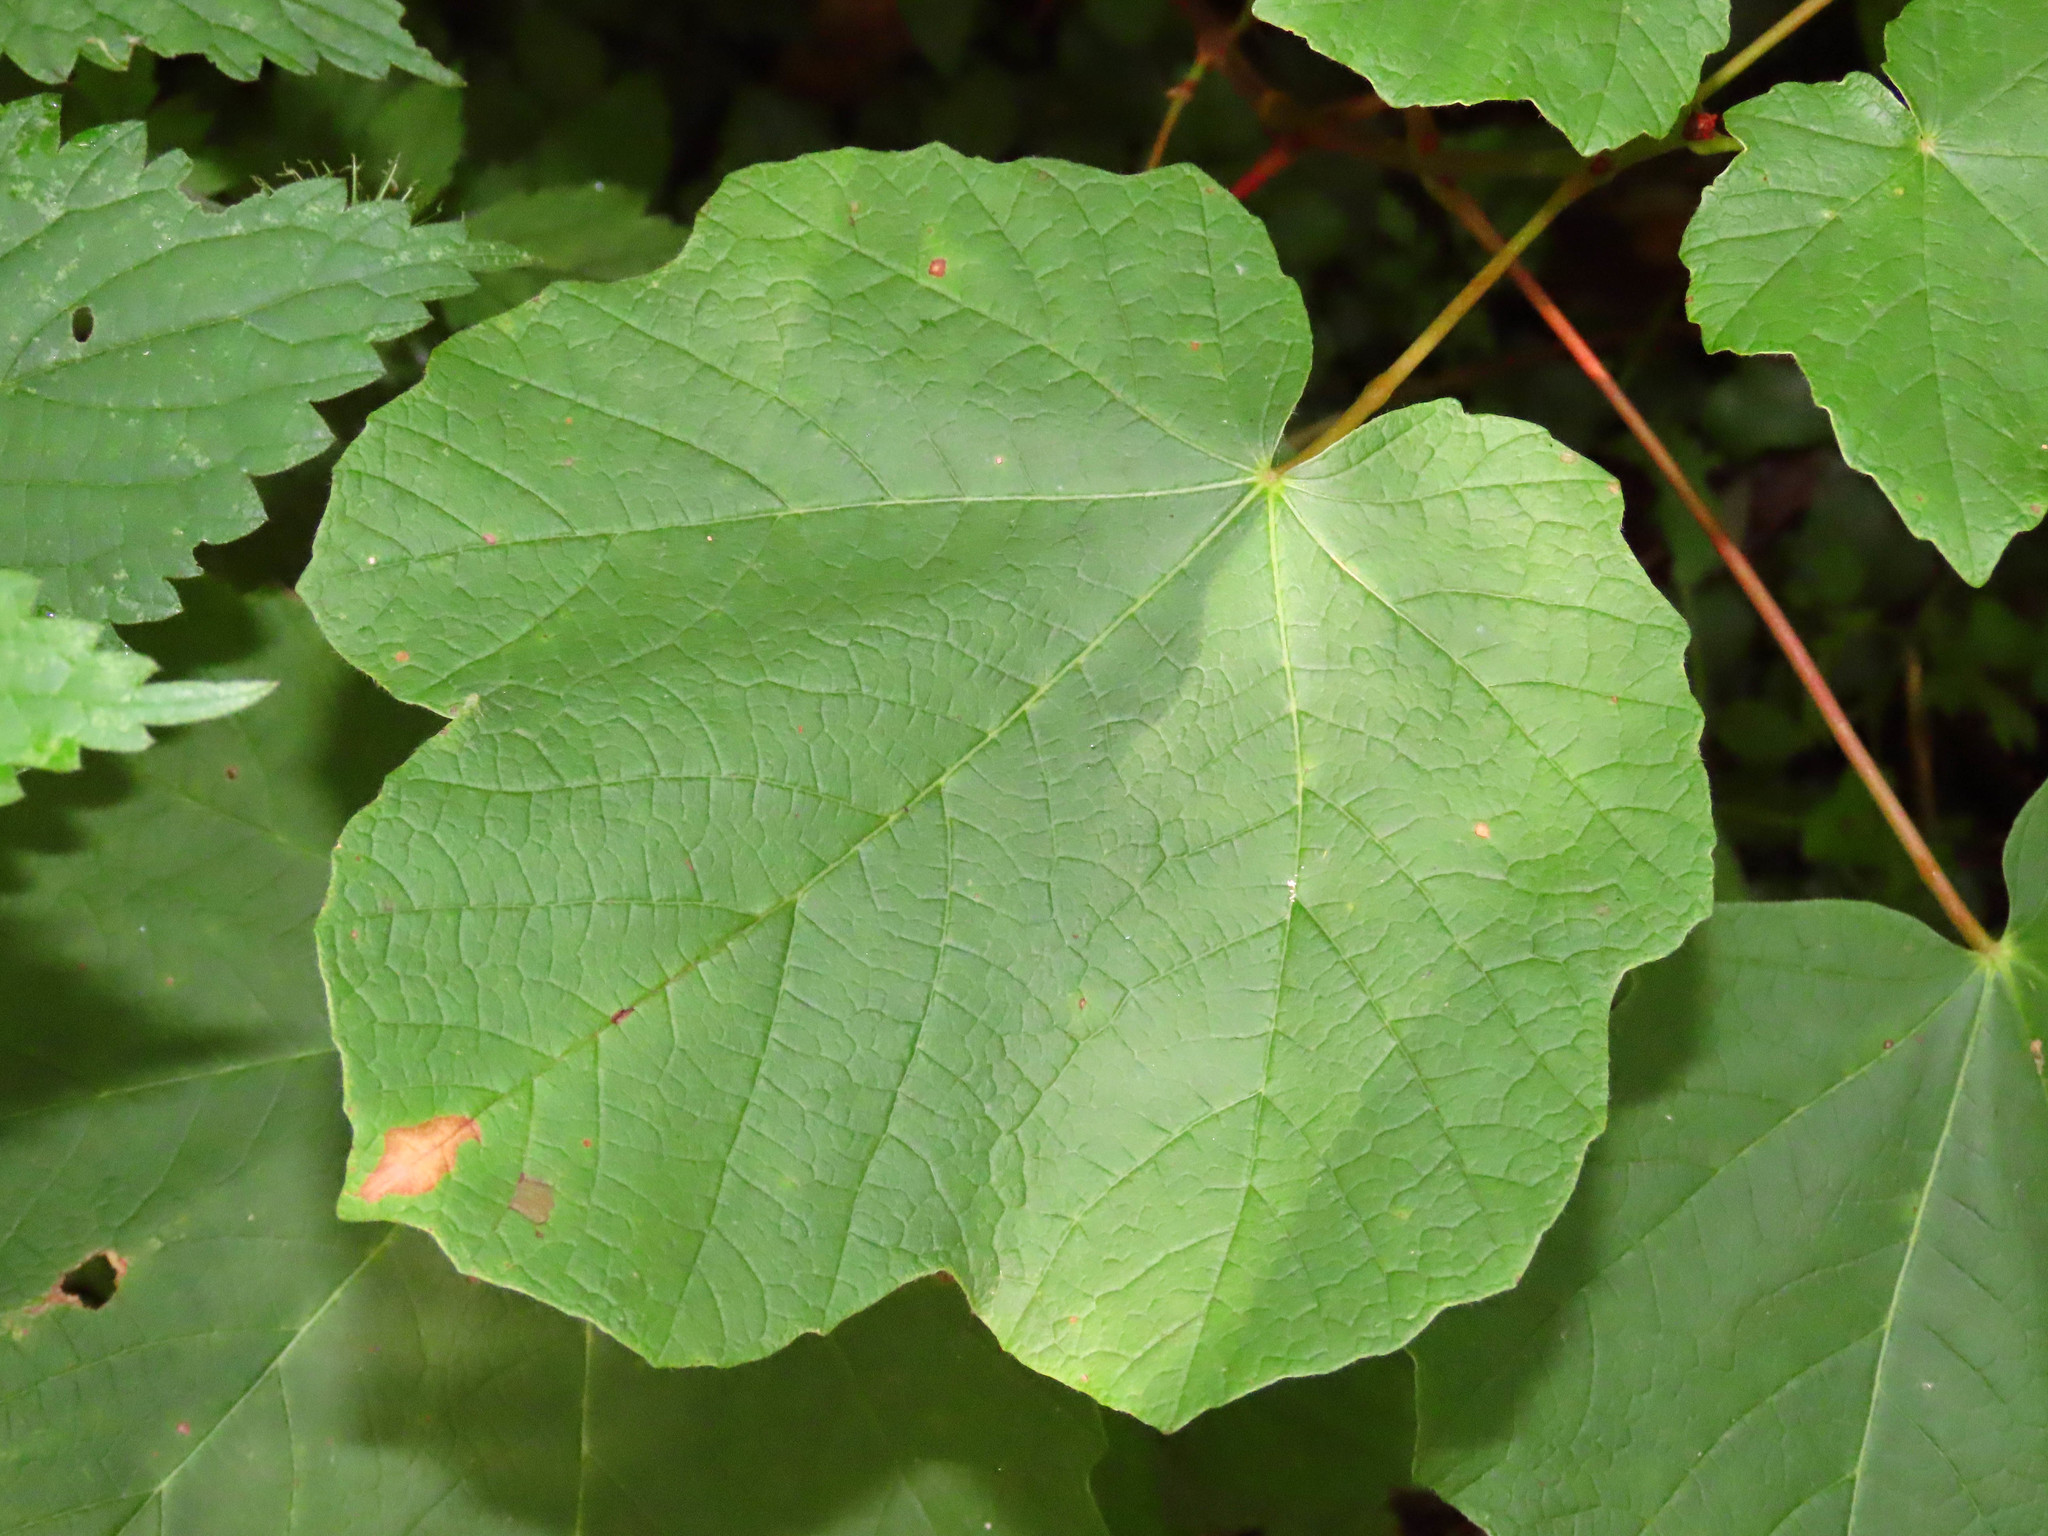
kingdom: Plantae
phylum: Tracheophyta
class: Magnoliopsida
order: Sapindales
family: Sapindaceae
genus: Acer
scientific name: Acer obtusatum
